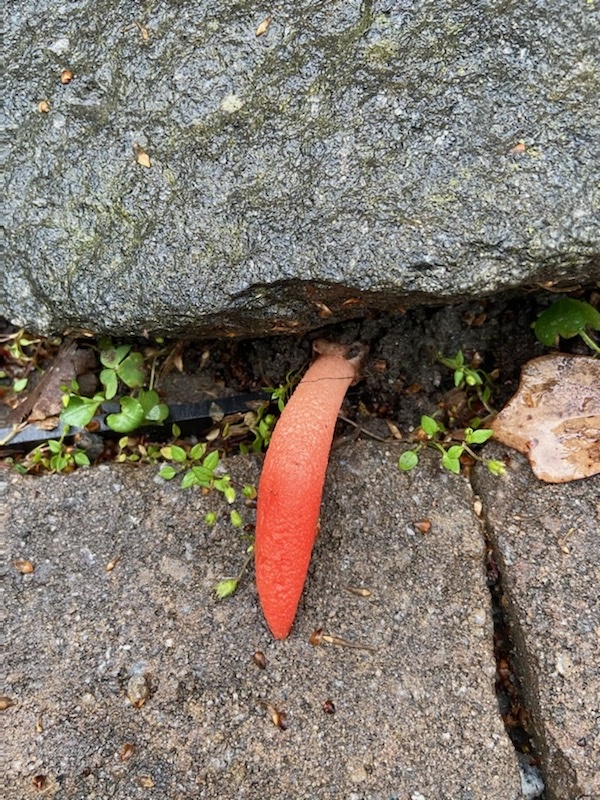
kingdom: Fungi
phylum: Basidiomycota
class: Agaricomycetes
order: Phallales
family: Phallaceae
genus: Mutinus
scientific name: Mutinus elegans
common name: Devil's dipstick
